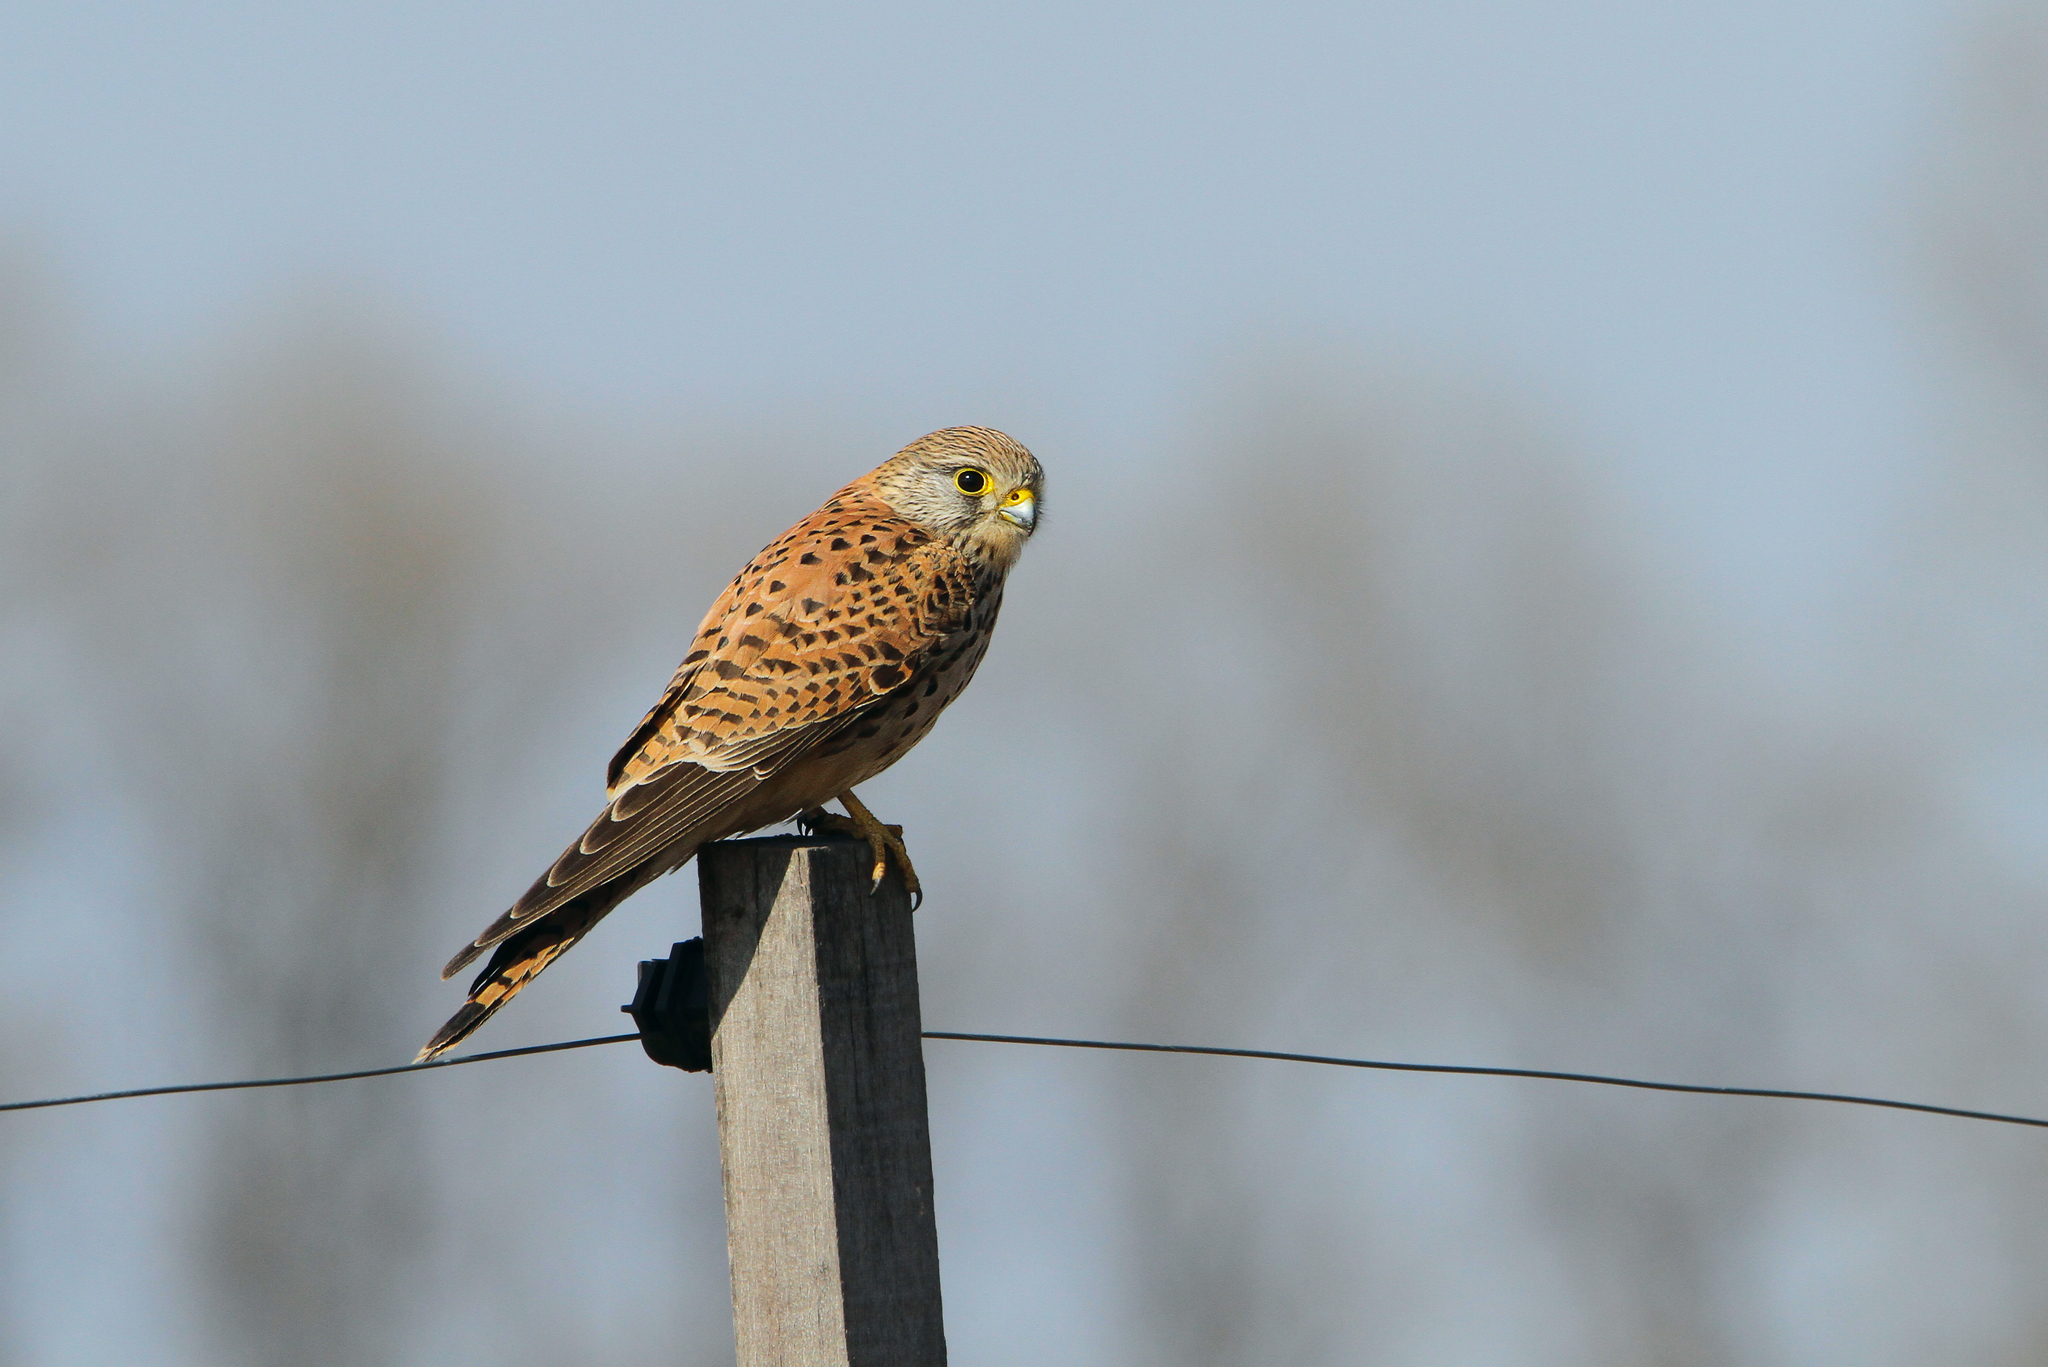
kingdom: Animalia
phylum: Chordata
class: Aves
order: Falconiformes
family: Falconidae
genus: Falco
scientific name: Falco tinnunculus
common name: Common kestrel
